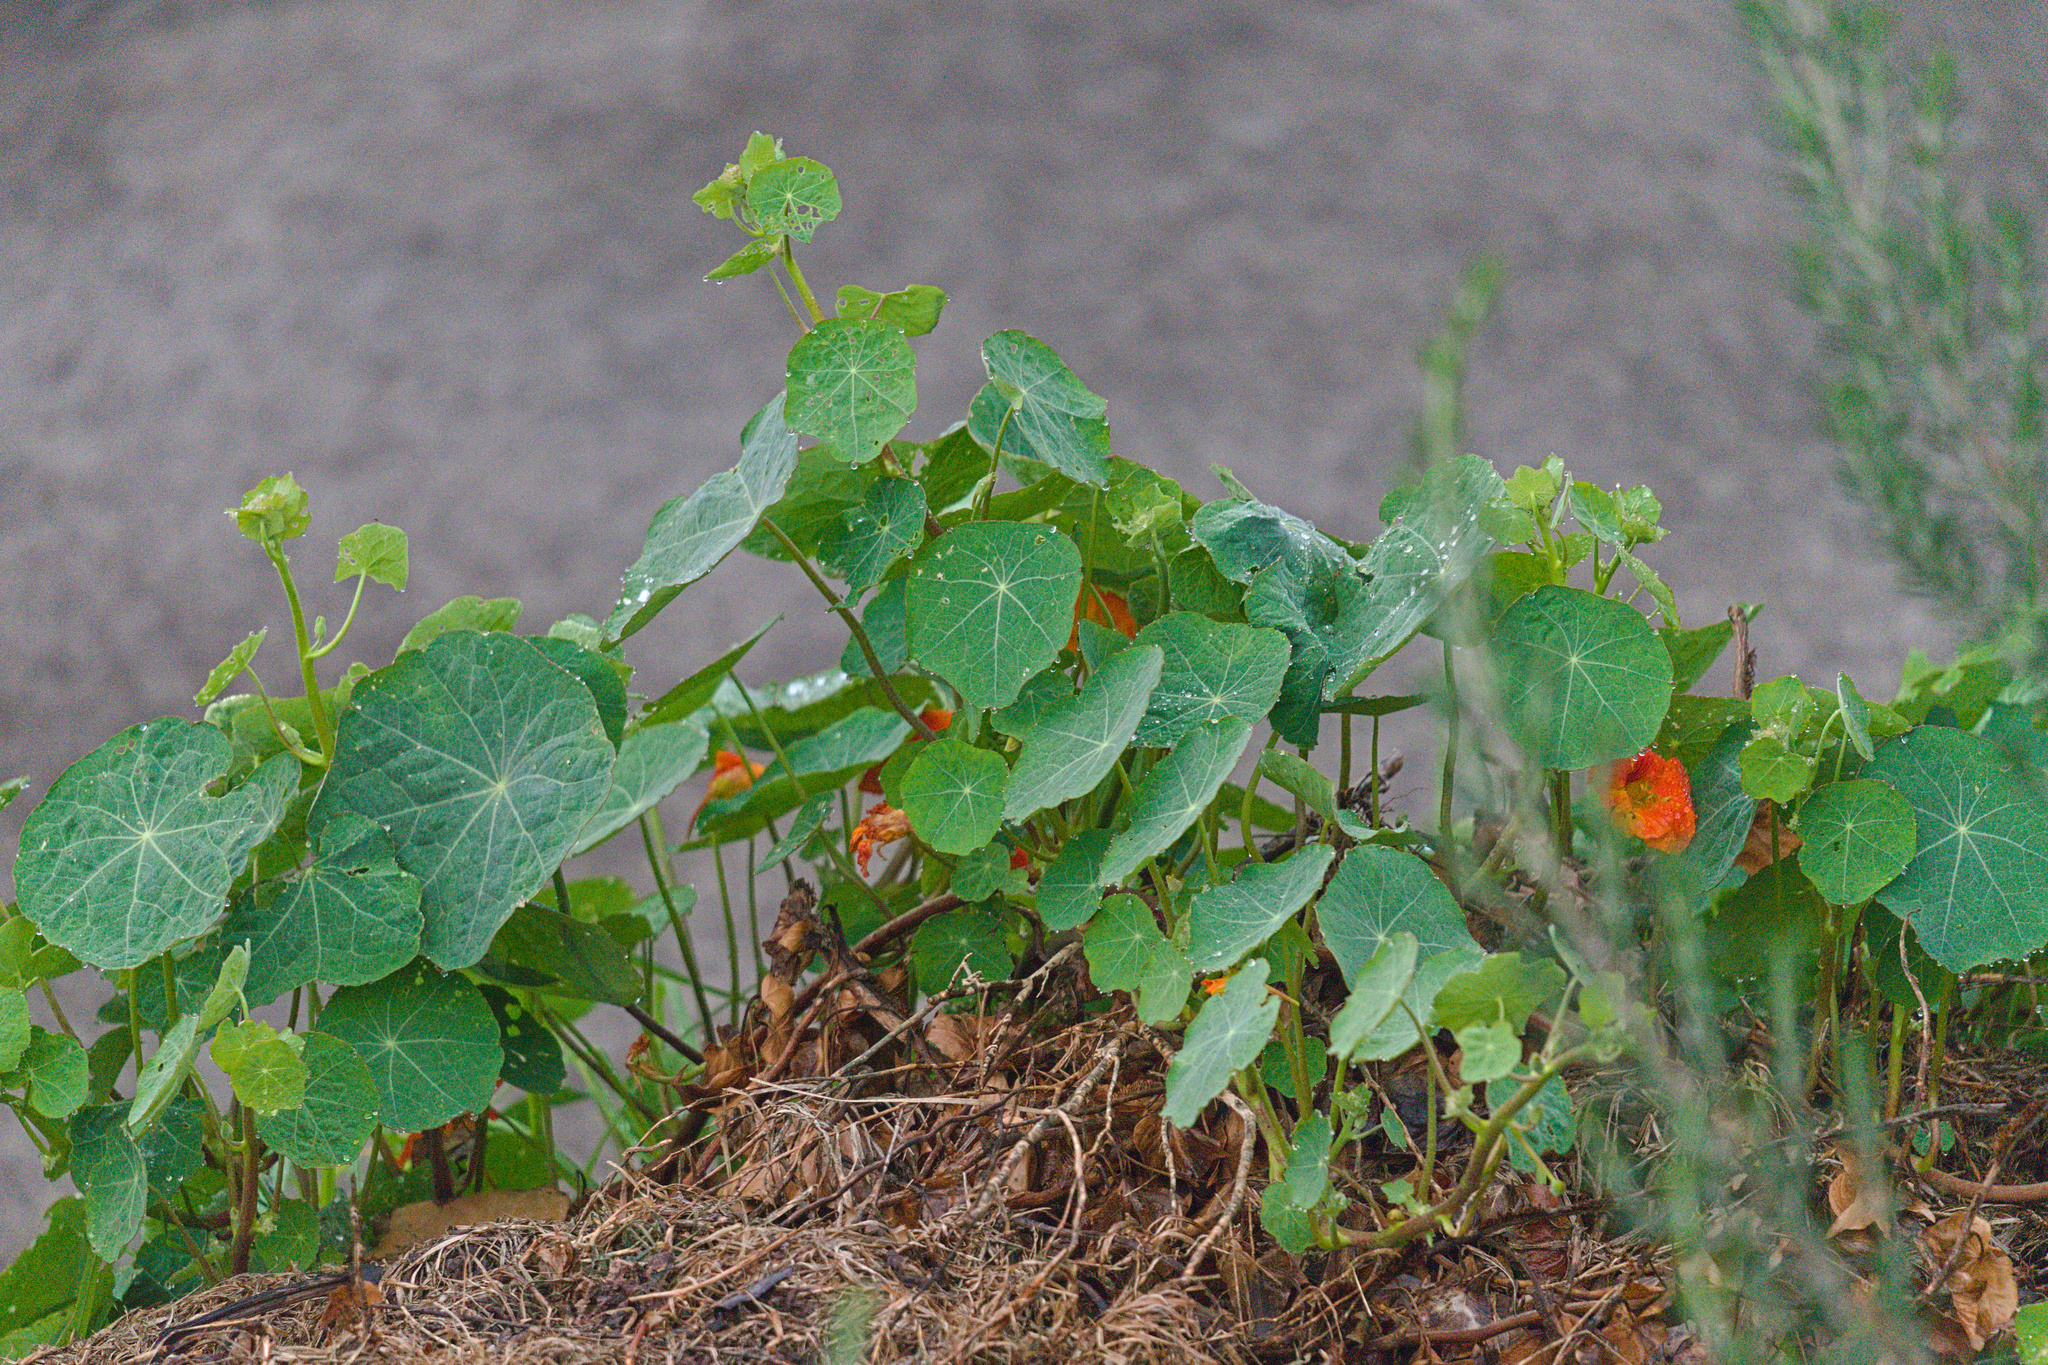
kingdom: Plantae
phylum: Tracheophyta
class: Magnoliopsida
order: Brassicales
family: Tropaeolaceae
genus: Tropaeolum
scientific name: Tropaeolum majus
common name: Nasturtium
